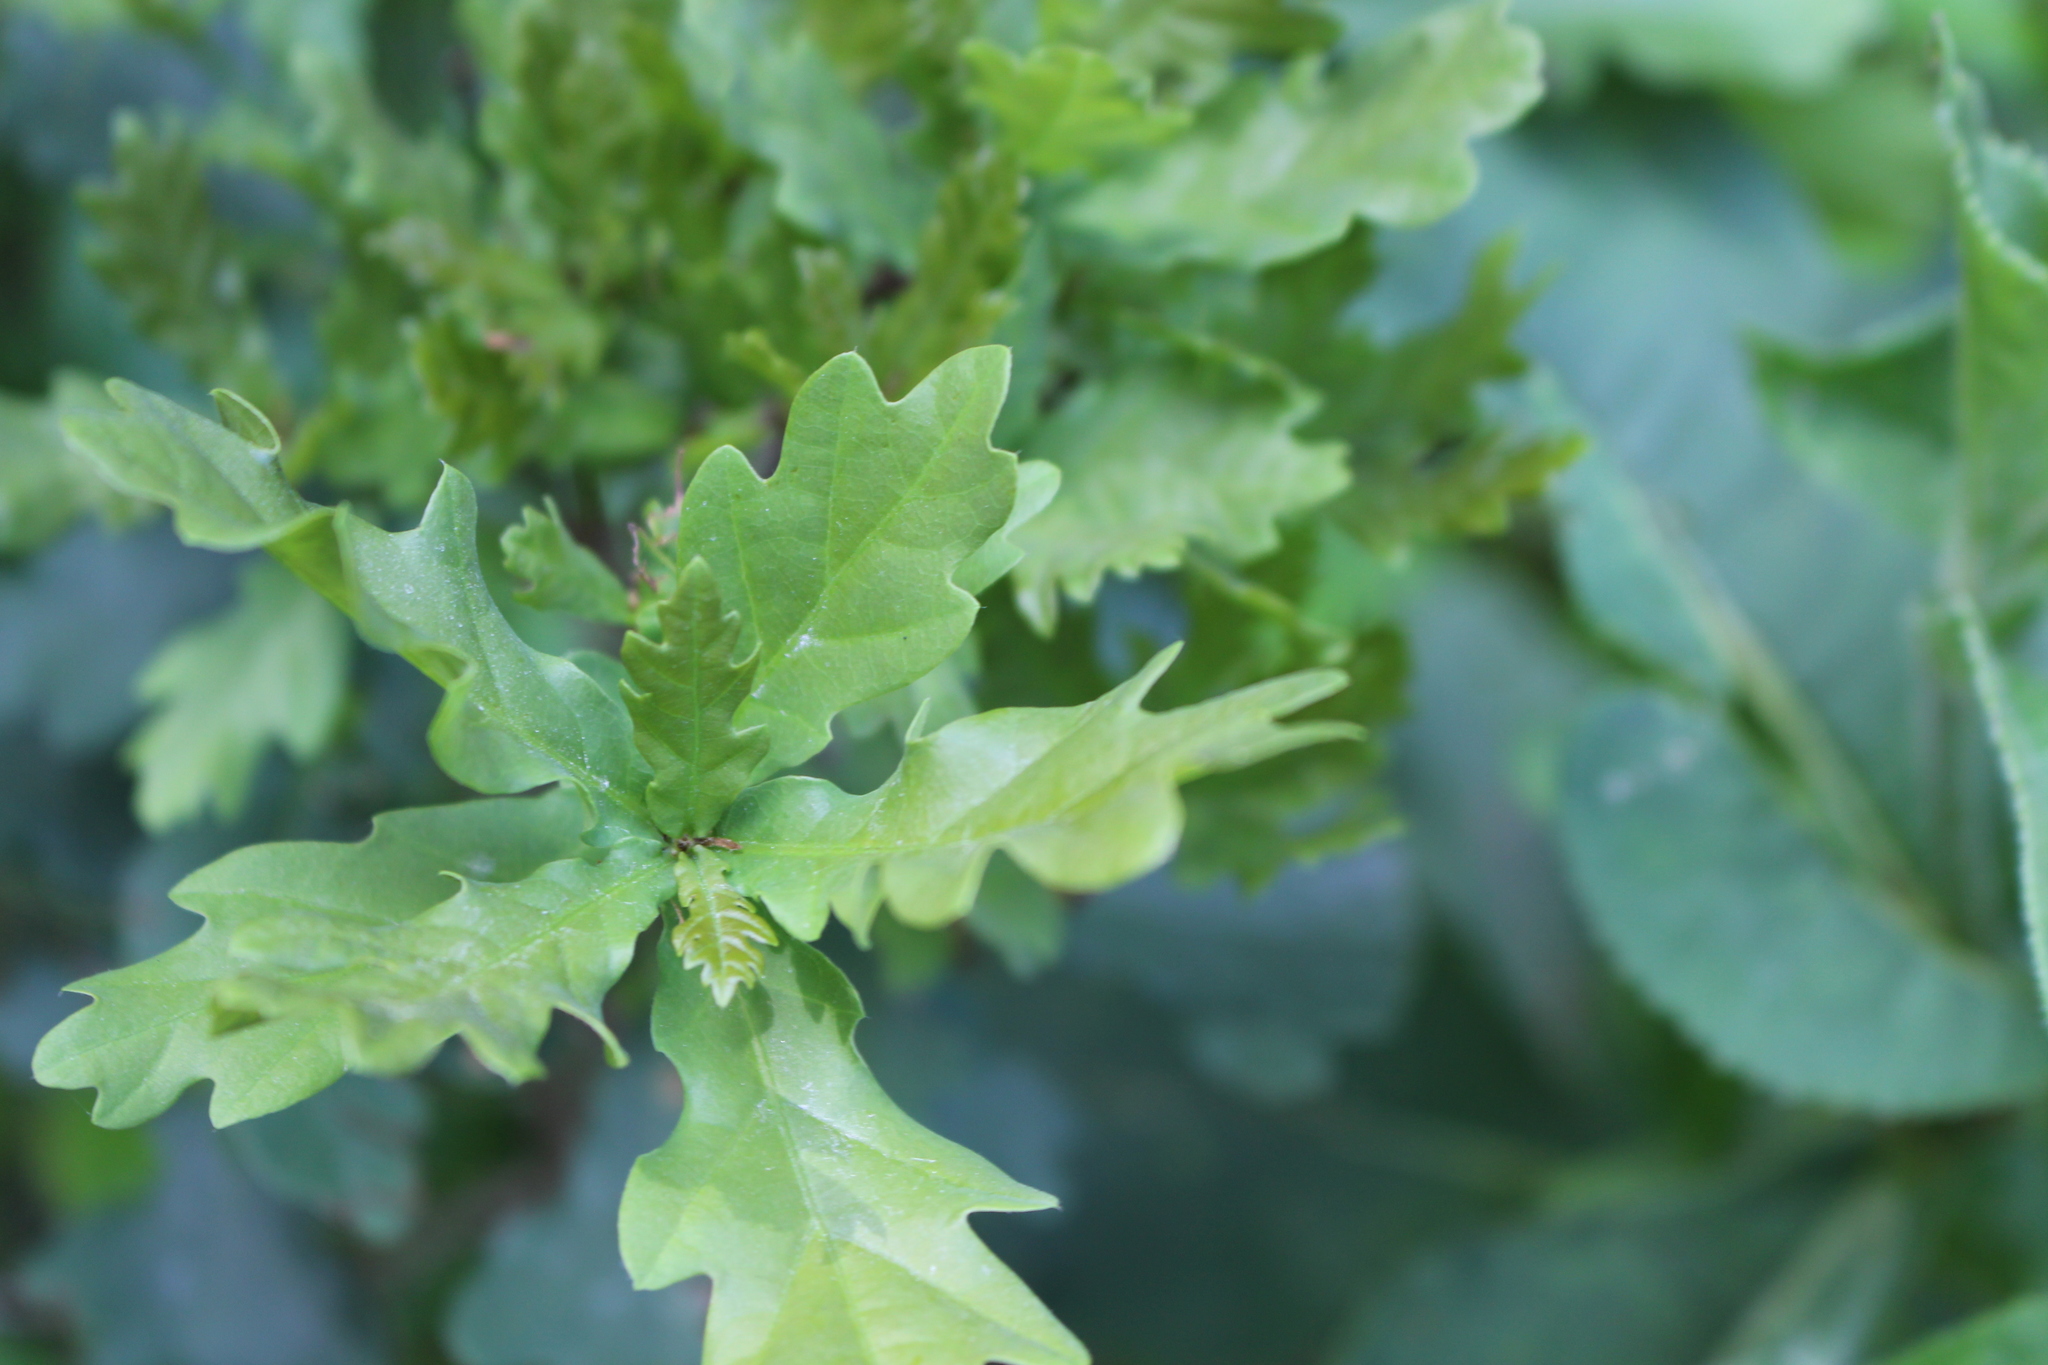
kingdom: Plantae
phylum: Tracheophyta
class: Magnoliopsida
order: Fagales
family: Fagaceae
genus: Quercus
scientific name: Quercus robur
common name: Pedunculate oak
